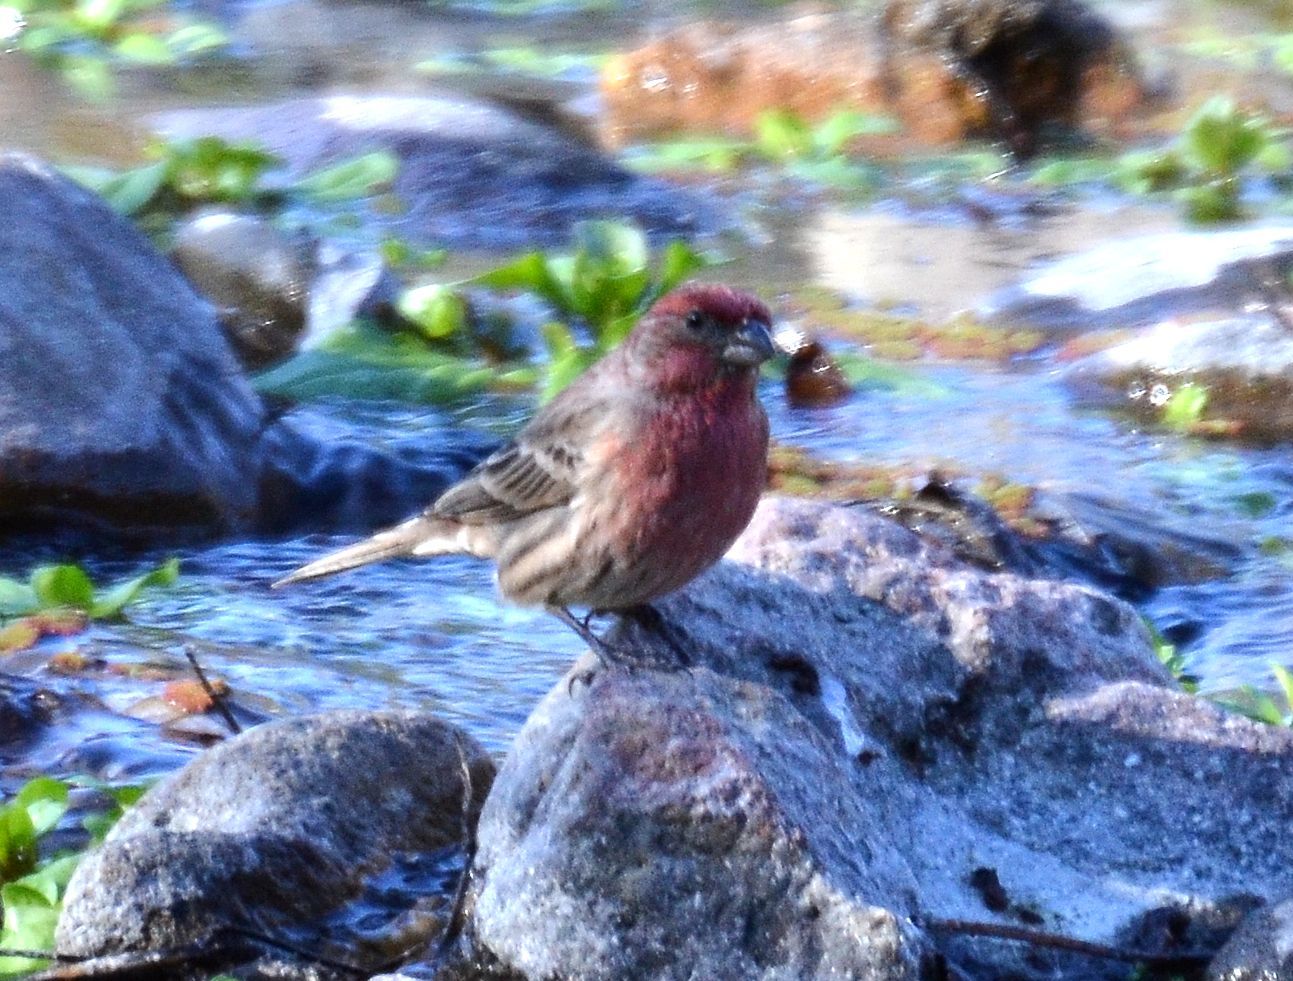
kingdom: Animalia
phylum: Chordata
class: Aves
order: Passeriformes
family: Fringillidae
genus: Haemorhous
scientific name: Haemorhous mexicanus
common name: House finch
